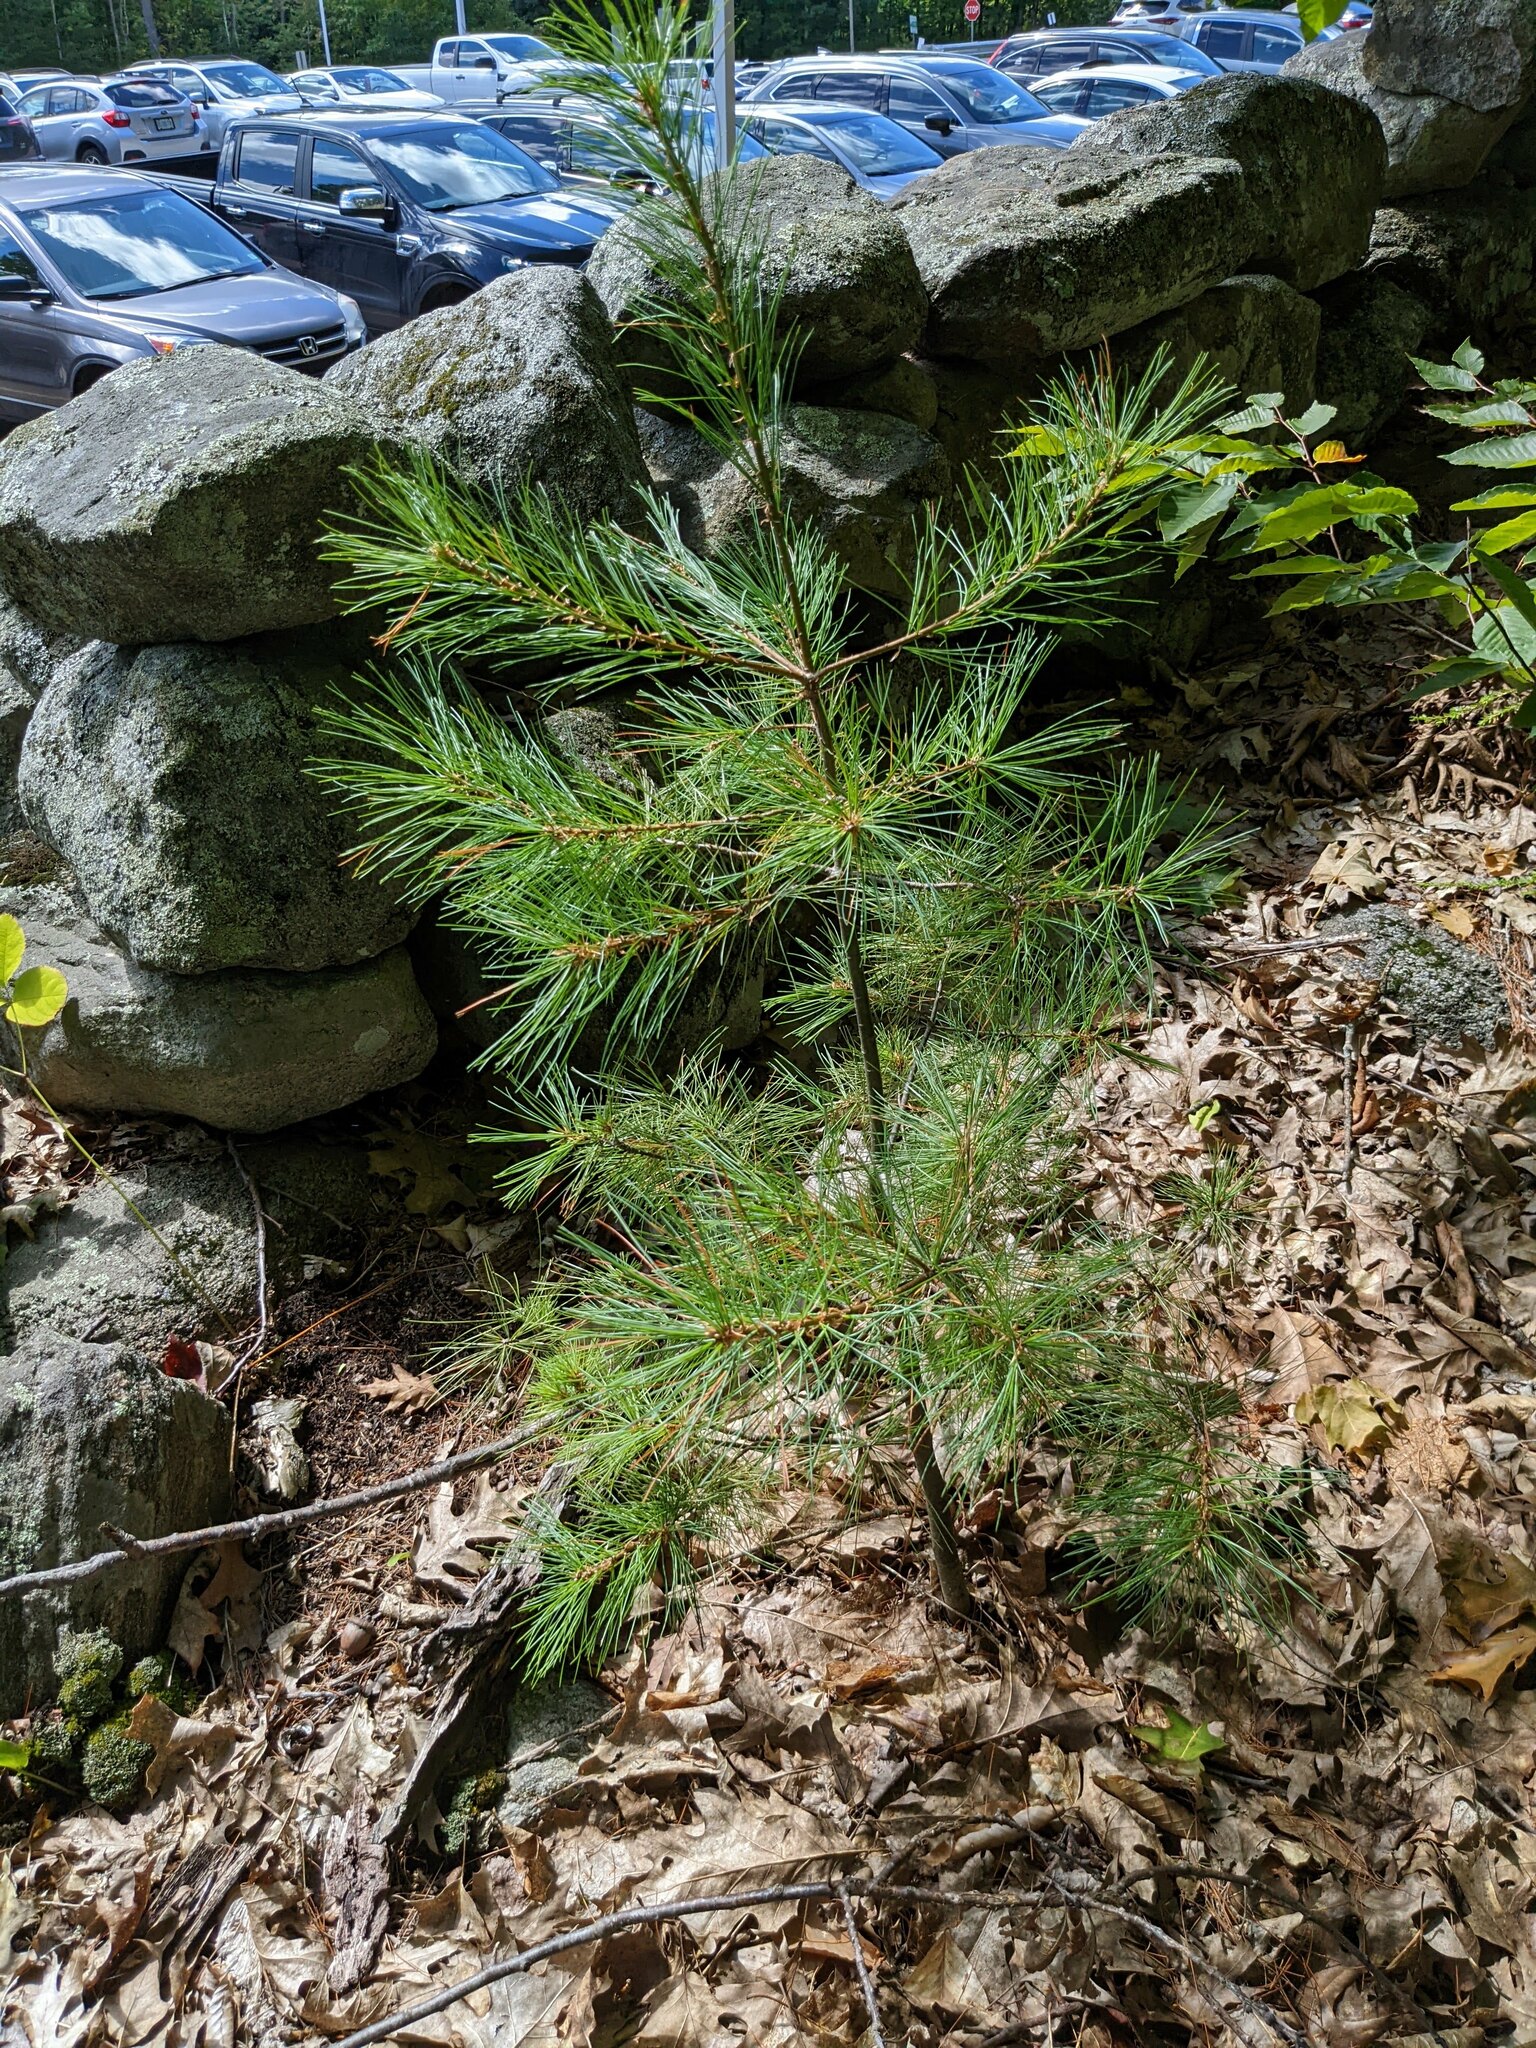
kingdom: Plantae
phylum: Tracheophyta
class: Pinopsida
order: Pinales
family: Pinaceae
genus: Pinus
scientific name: Pinus strobus
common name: Weymouth pine
